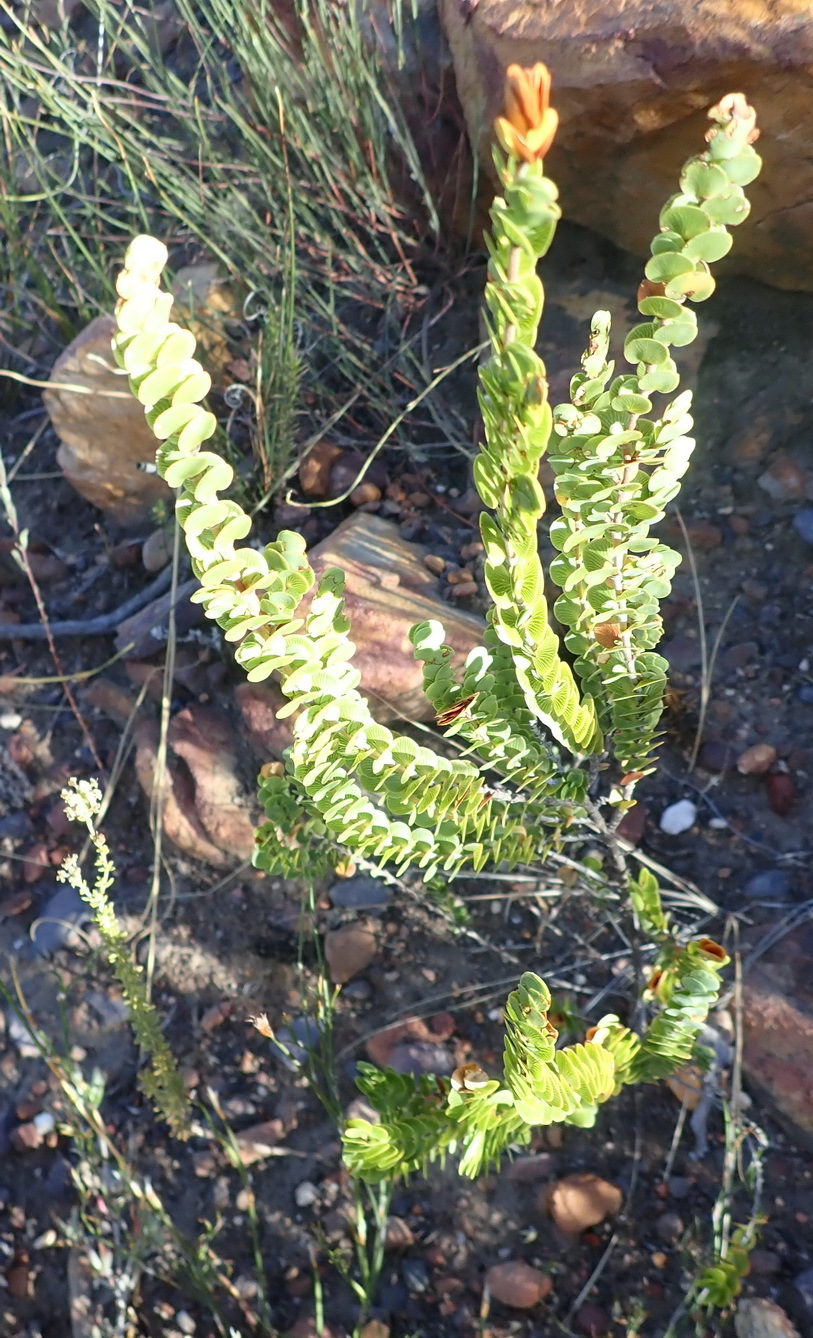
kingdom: Plantae
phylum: Tracheophyta
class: Magnoliopsida
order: Rosales
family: Rosaceae
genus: Cliffortia
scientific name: Cliffortia pulchella
